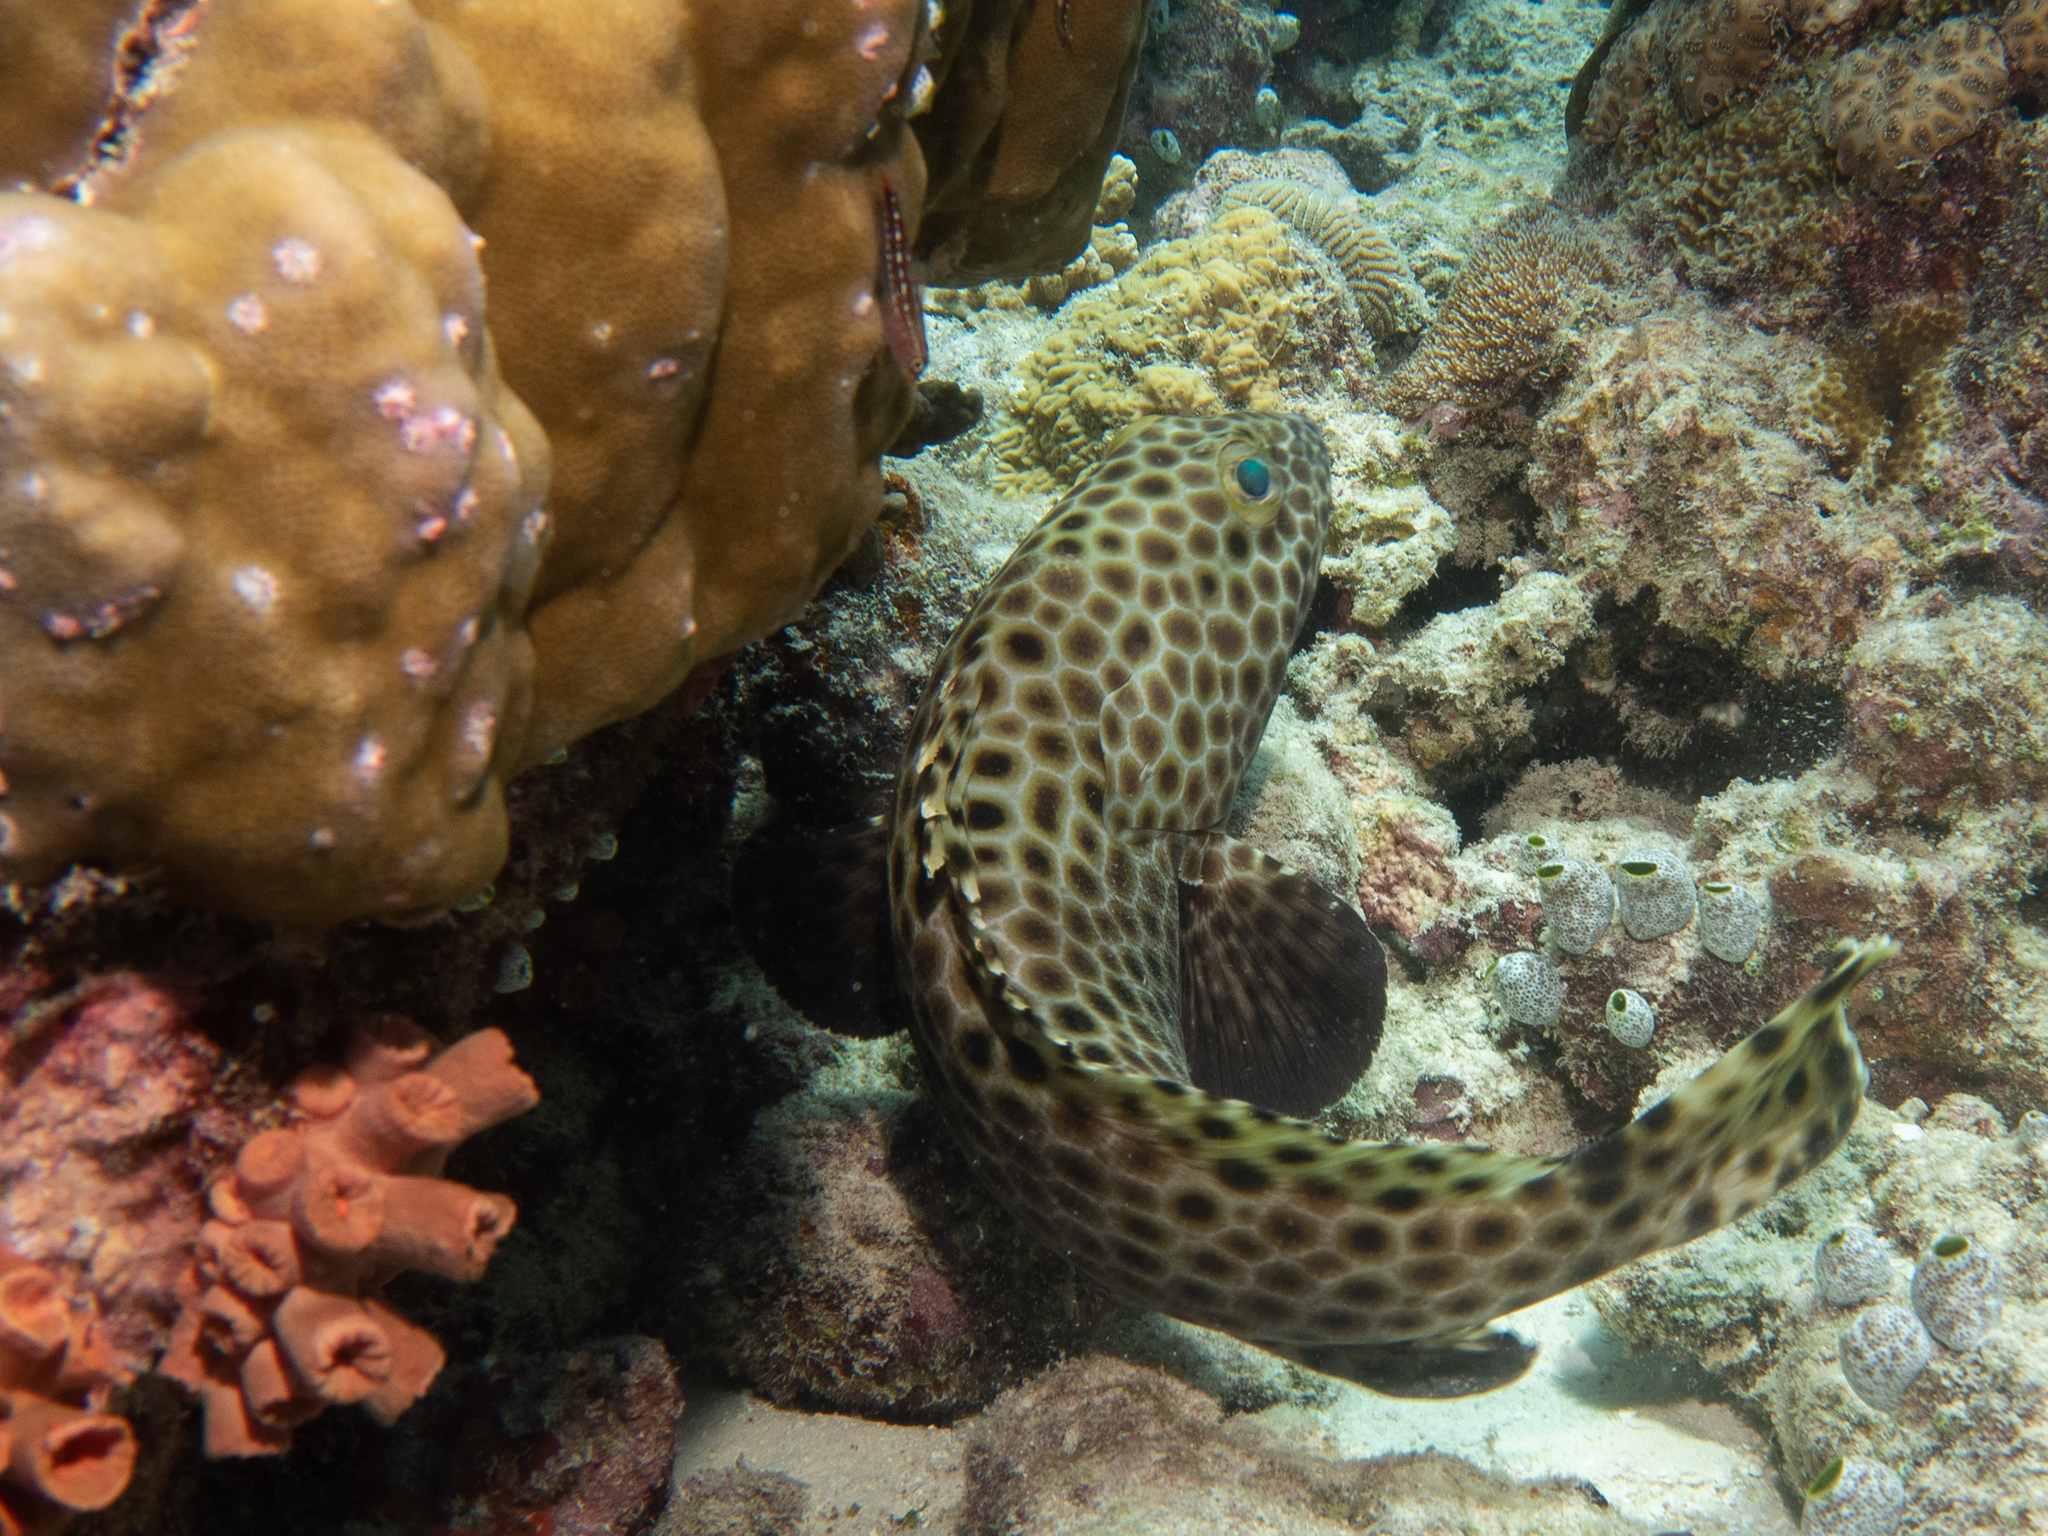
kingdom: Animalia
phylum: Chordata
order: Perciformes
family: Serranidae
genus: Epinephelus
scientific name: Epinephelus macrospilos
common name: Snubnose grouper
